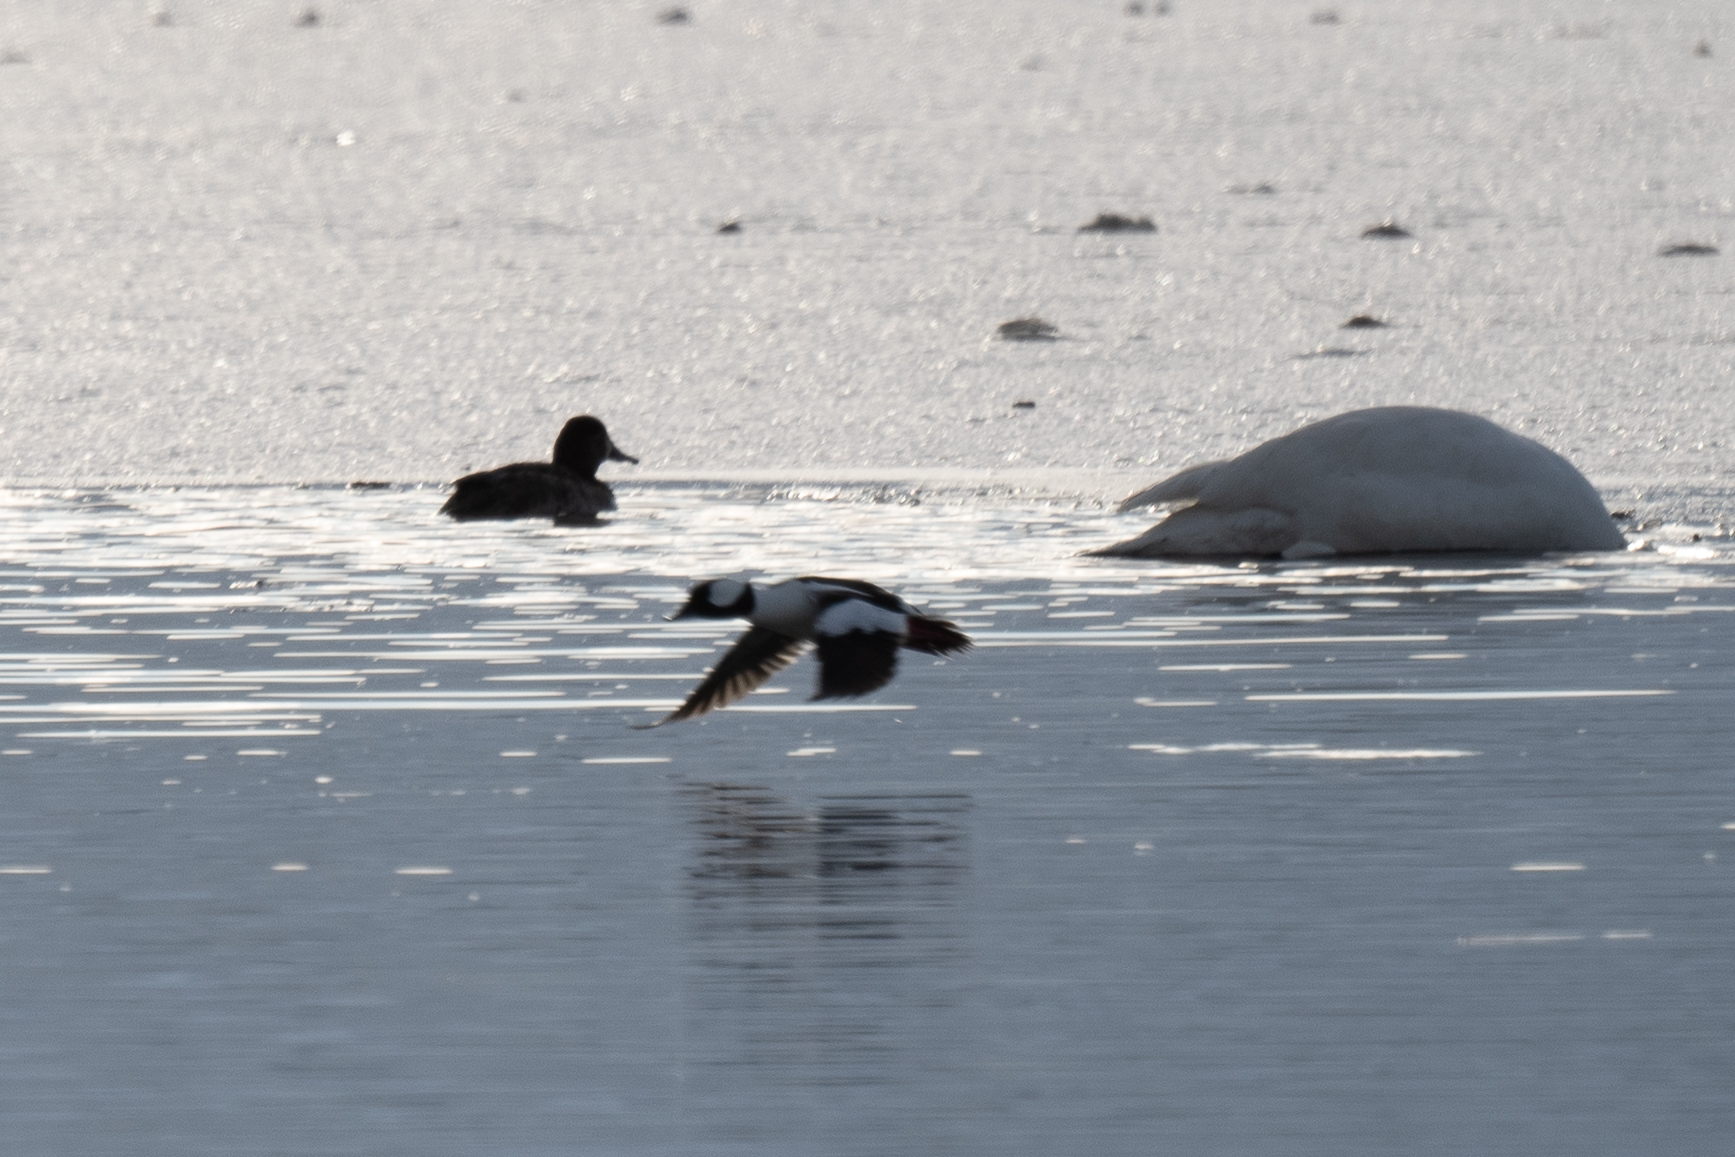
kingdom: Animalia
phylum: Chordata
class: Aves
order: Anseriformes
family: Anatidae
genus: Bucephala
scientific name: Bucephala albeola
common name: Bufflehead
